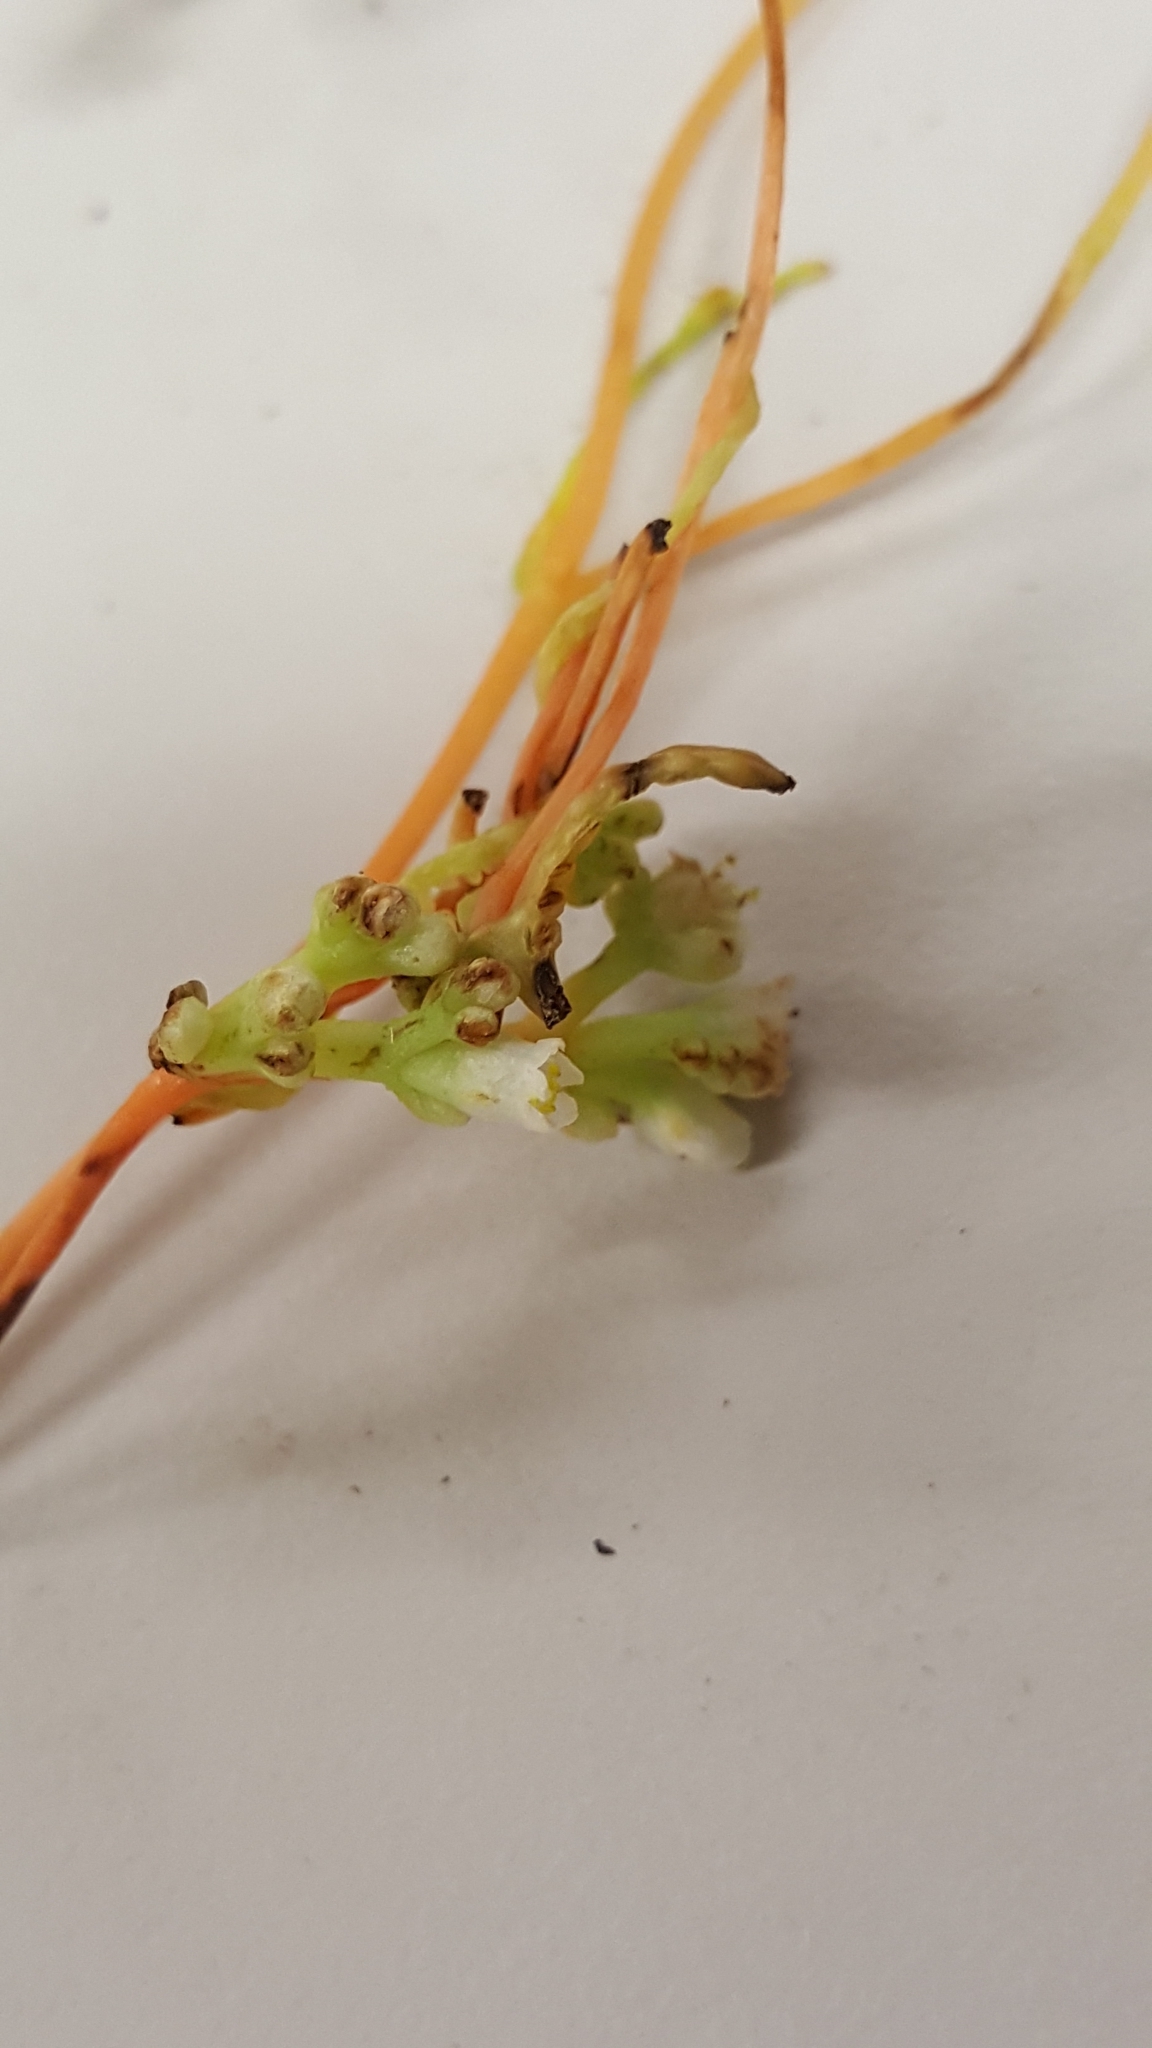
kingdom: Plantae
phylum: Tracheophyta
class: Magnoliopsida
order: Solanales
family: Convolvulaceae
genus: Cuscuta
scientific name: Cuscuta gronovii
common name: Common dodder
